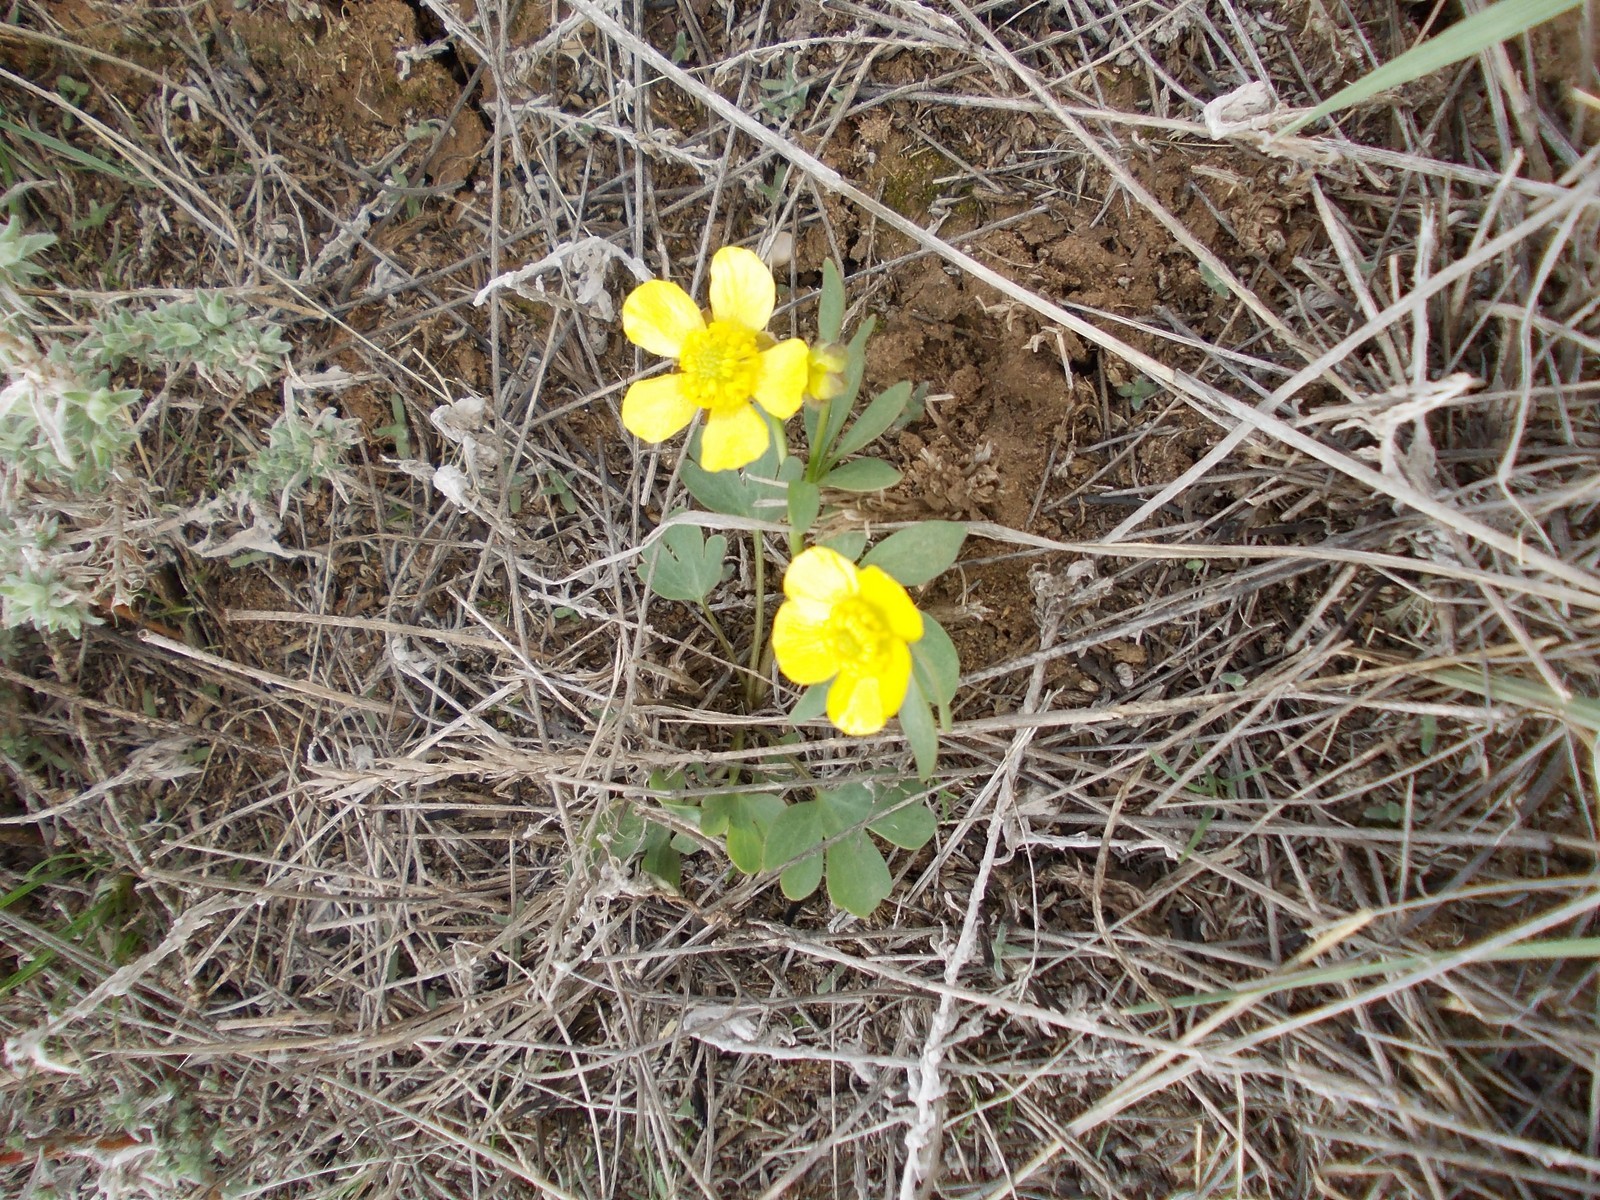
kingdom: Plantae
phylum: Tracheophyta
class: Magnoliopsida
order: Ranunculales
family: Ranunculaceae
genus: Ranunculus
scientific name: Ranunculus polyrhizos
